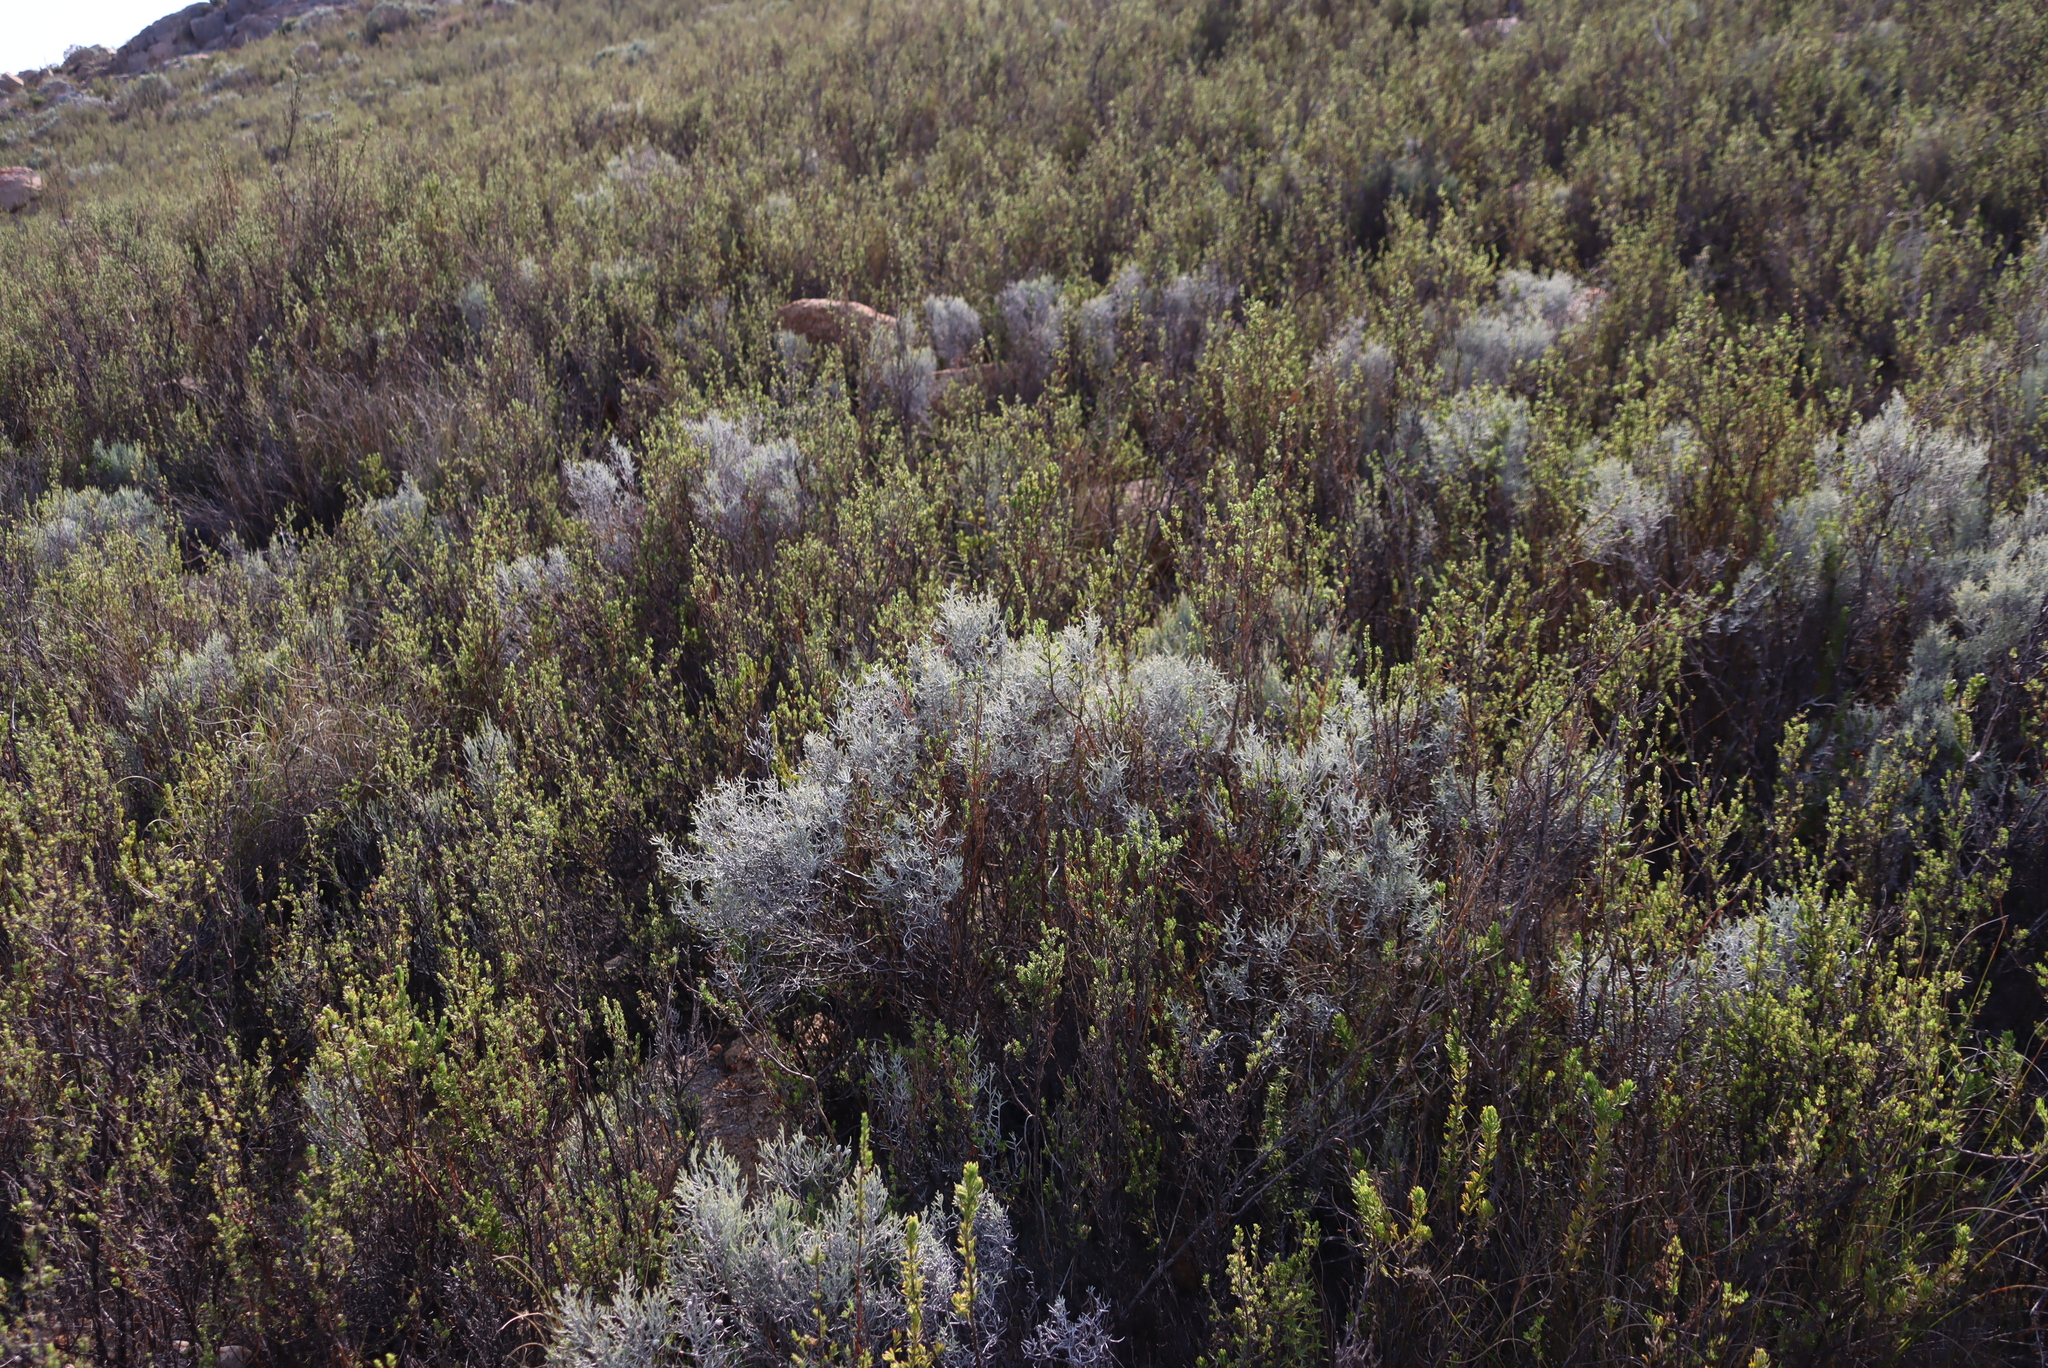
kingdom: Plantae
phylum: Tracheophyta
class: Magnoliopsida
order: Asterales
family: Asteraceae
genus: Dicerothamnus
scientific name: Dicerothamnus adpressus
